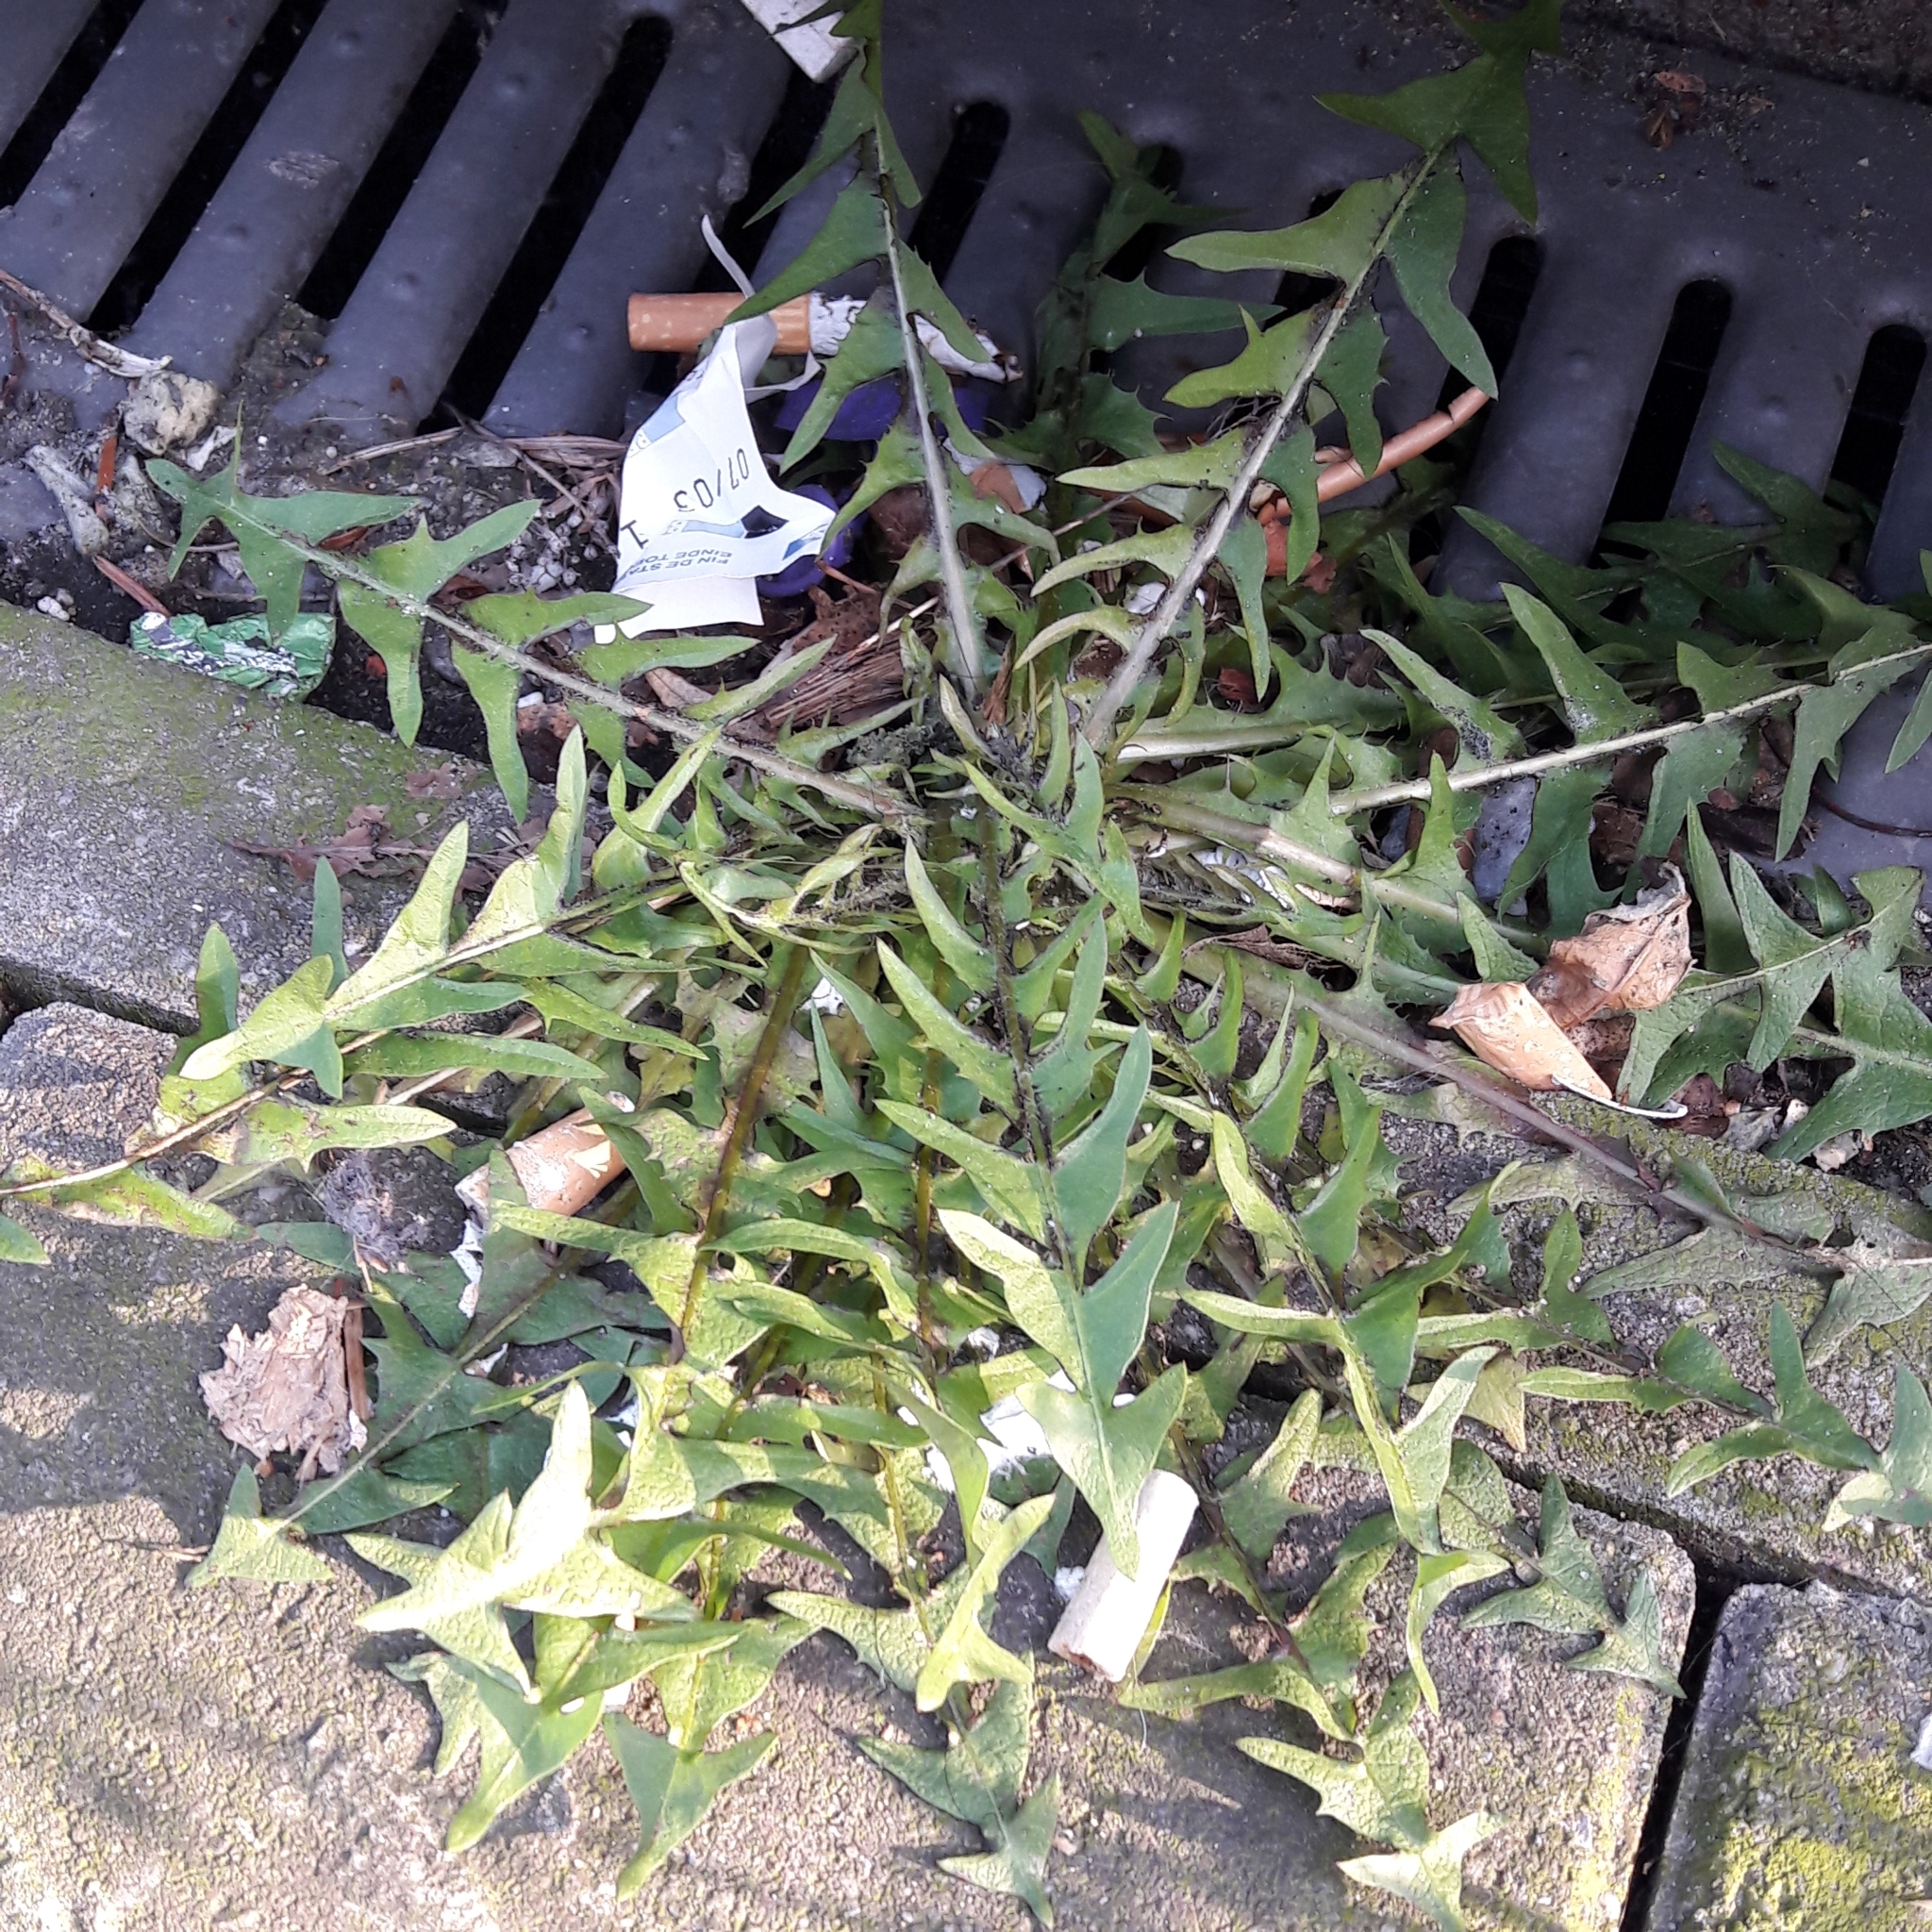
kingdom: Plantae
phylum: Tracheophyta
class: Magnoliopsida
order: Asterales
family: Asteraceae
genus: Taraxacum
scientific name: Taraxacum officinale
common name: Common dandelion
